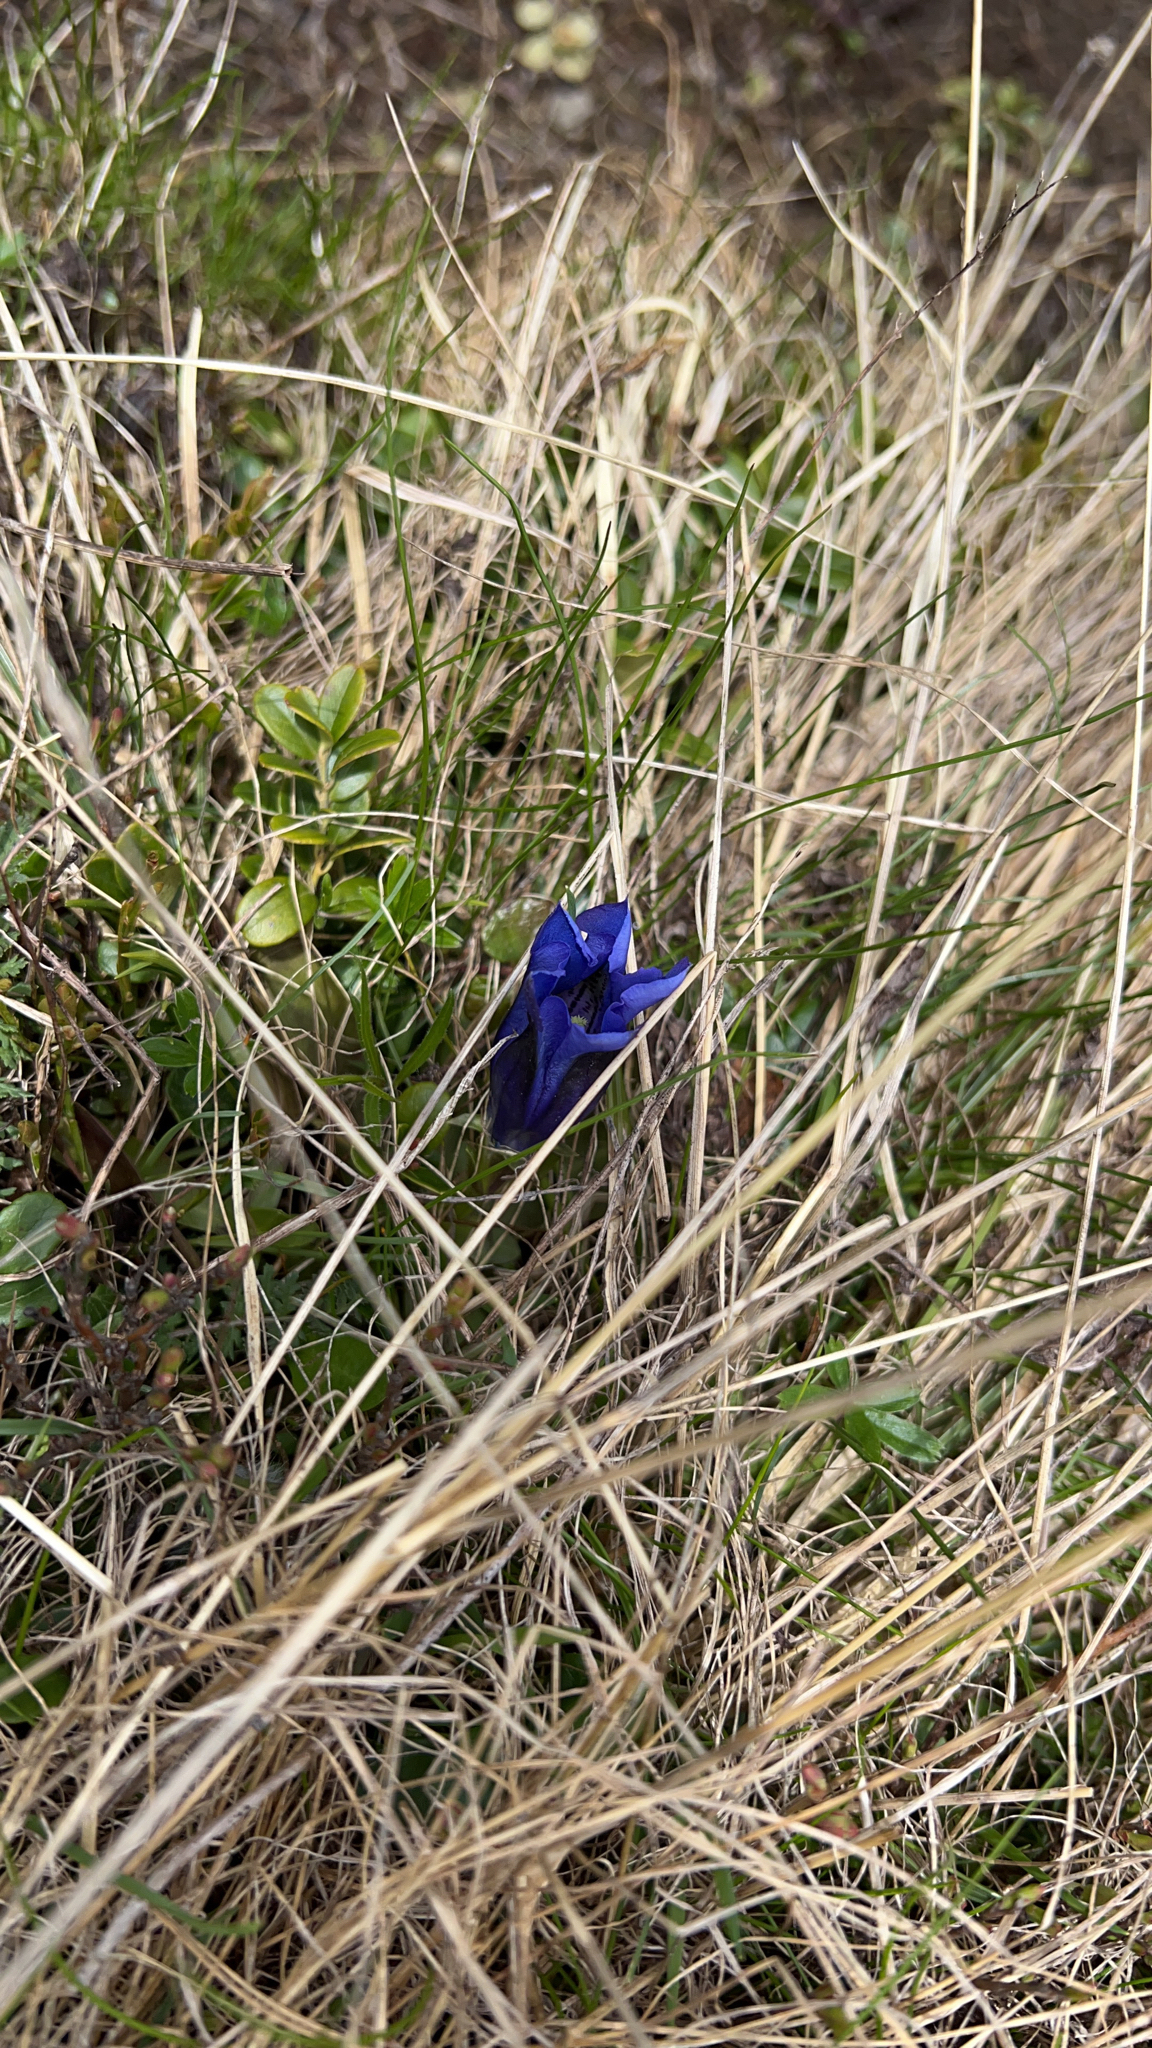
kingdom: Plantae
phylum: Tracheophyta
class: Magnoliopsida
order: Gentianales
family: Gentianaceae
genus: Gentiana
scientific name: Gentiana acaulis
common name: Trumpet gentian
